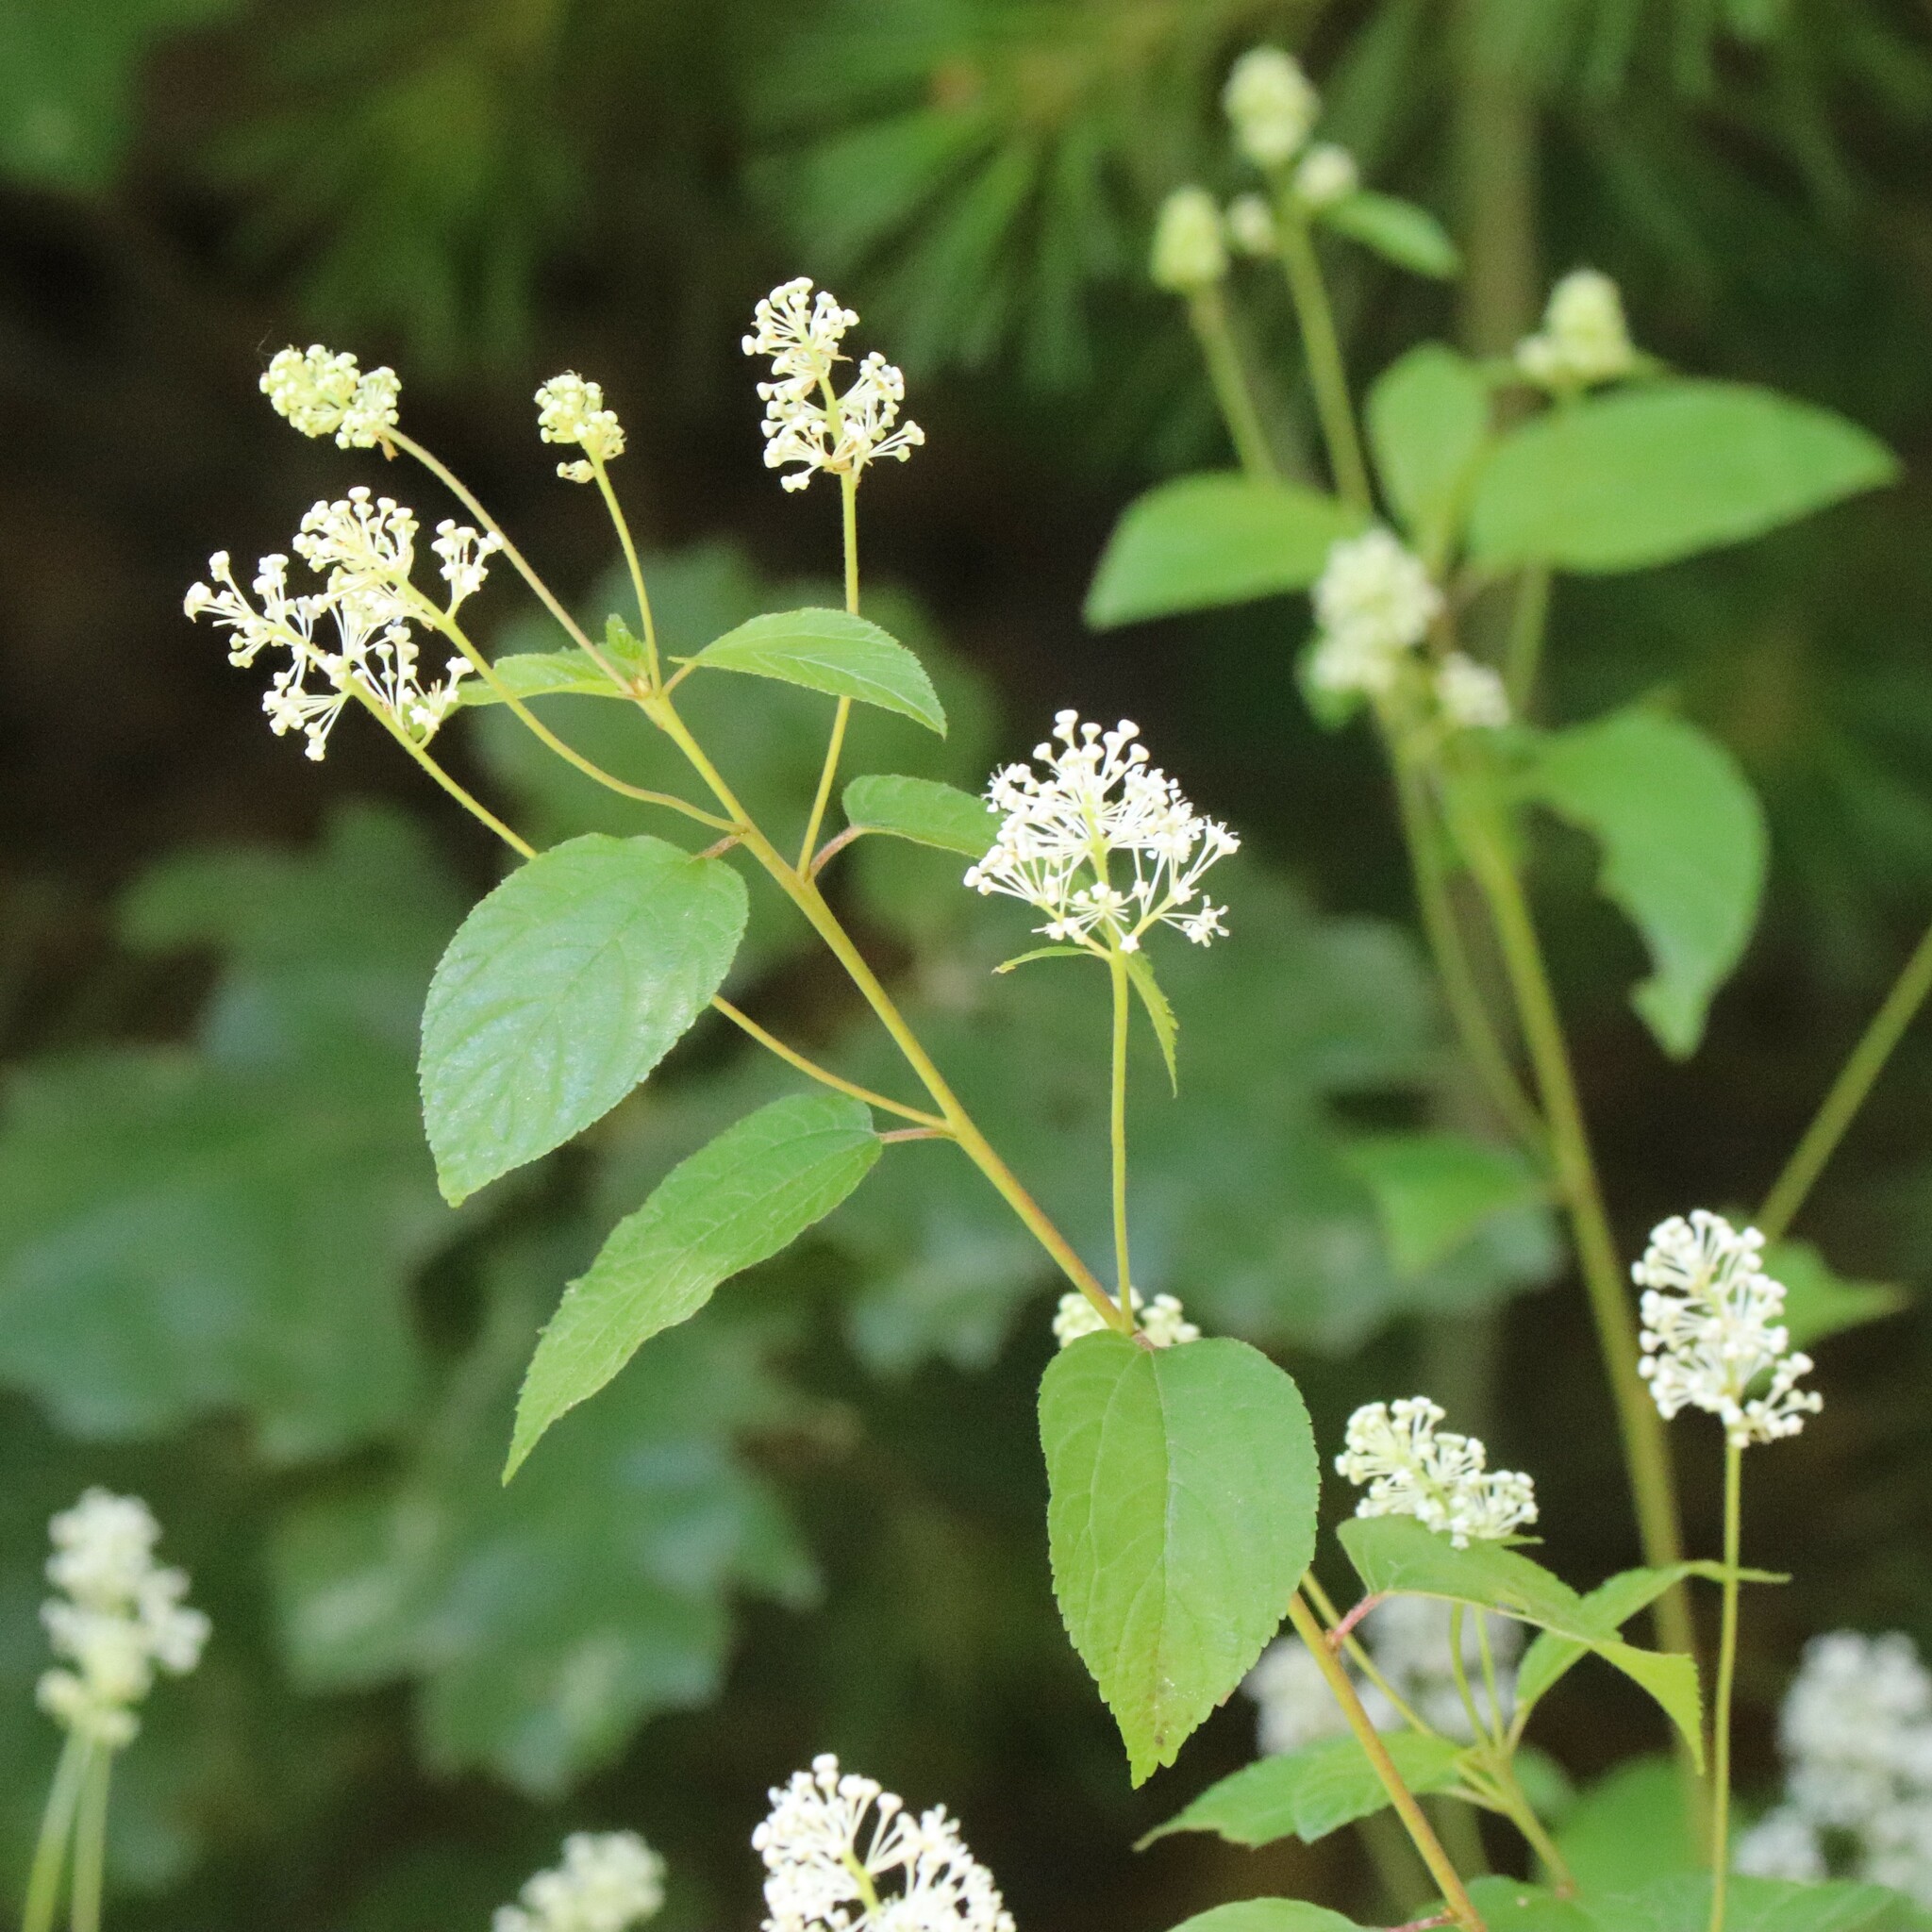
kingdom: Plantae
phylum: Tracheophyta
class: Magnoliopsida
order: Rosales
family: Rhamnaceae
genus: Ceanothus
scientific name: Ceanothus americanus
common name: Redroot
